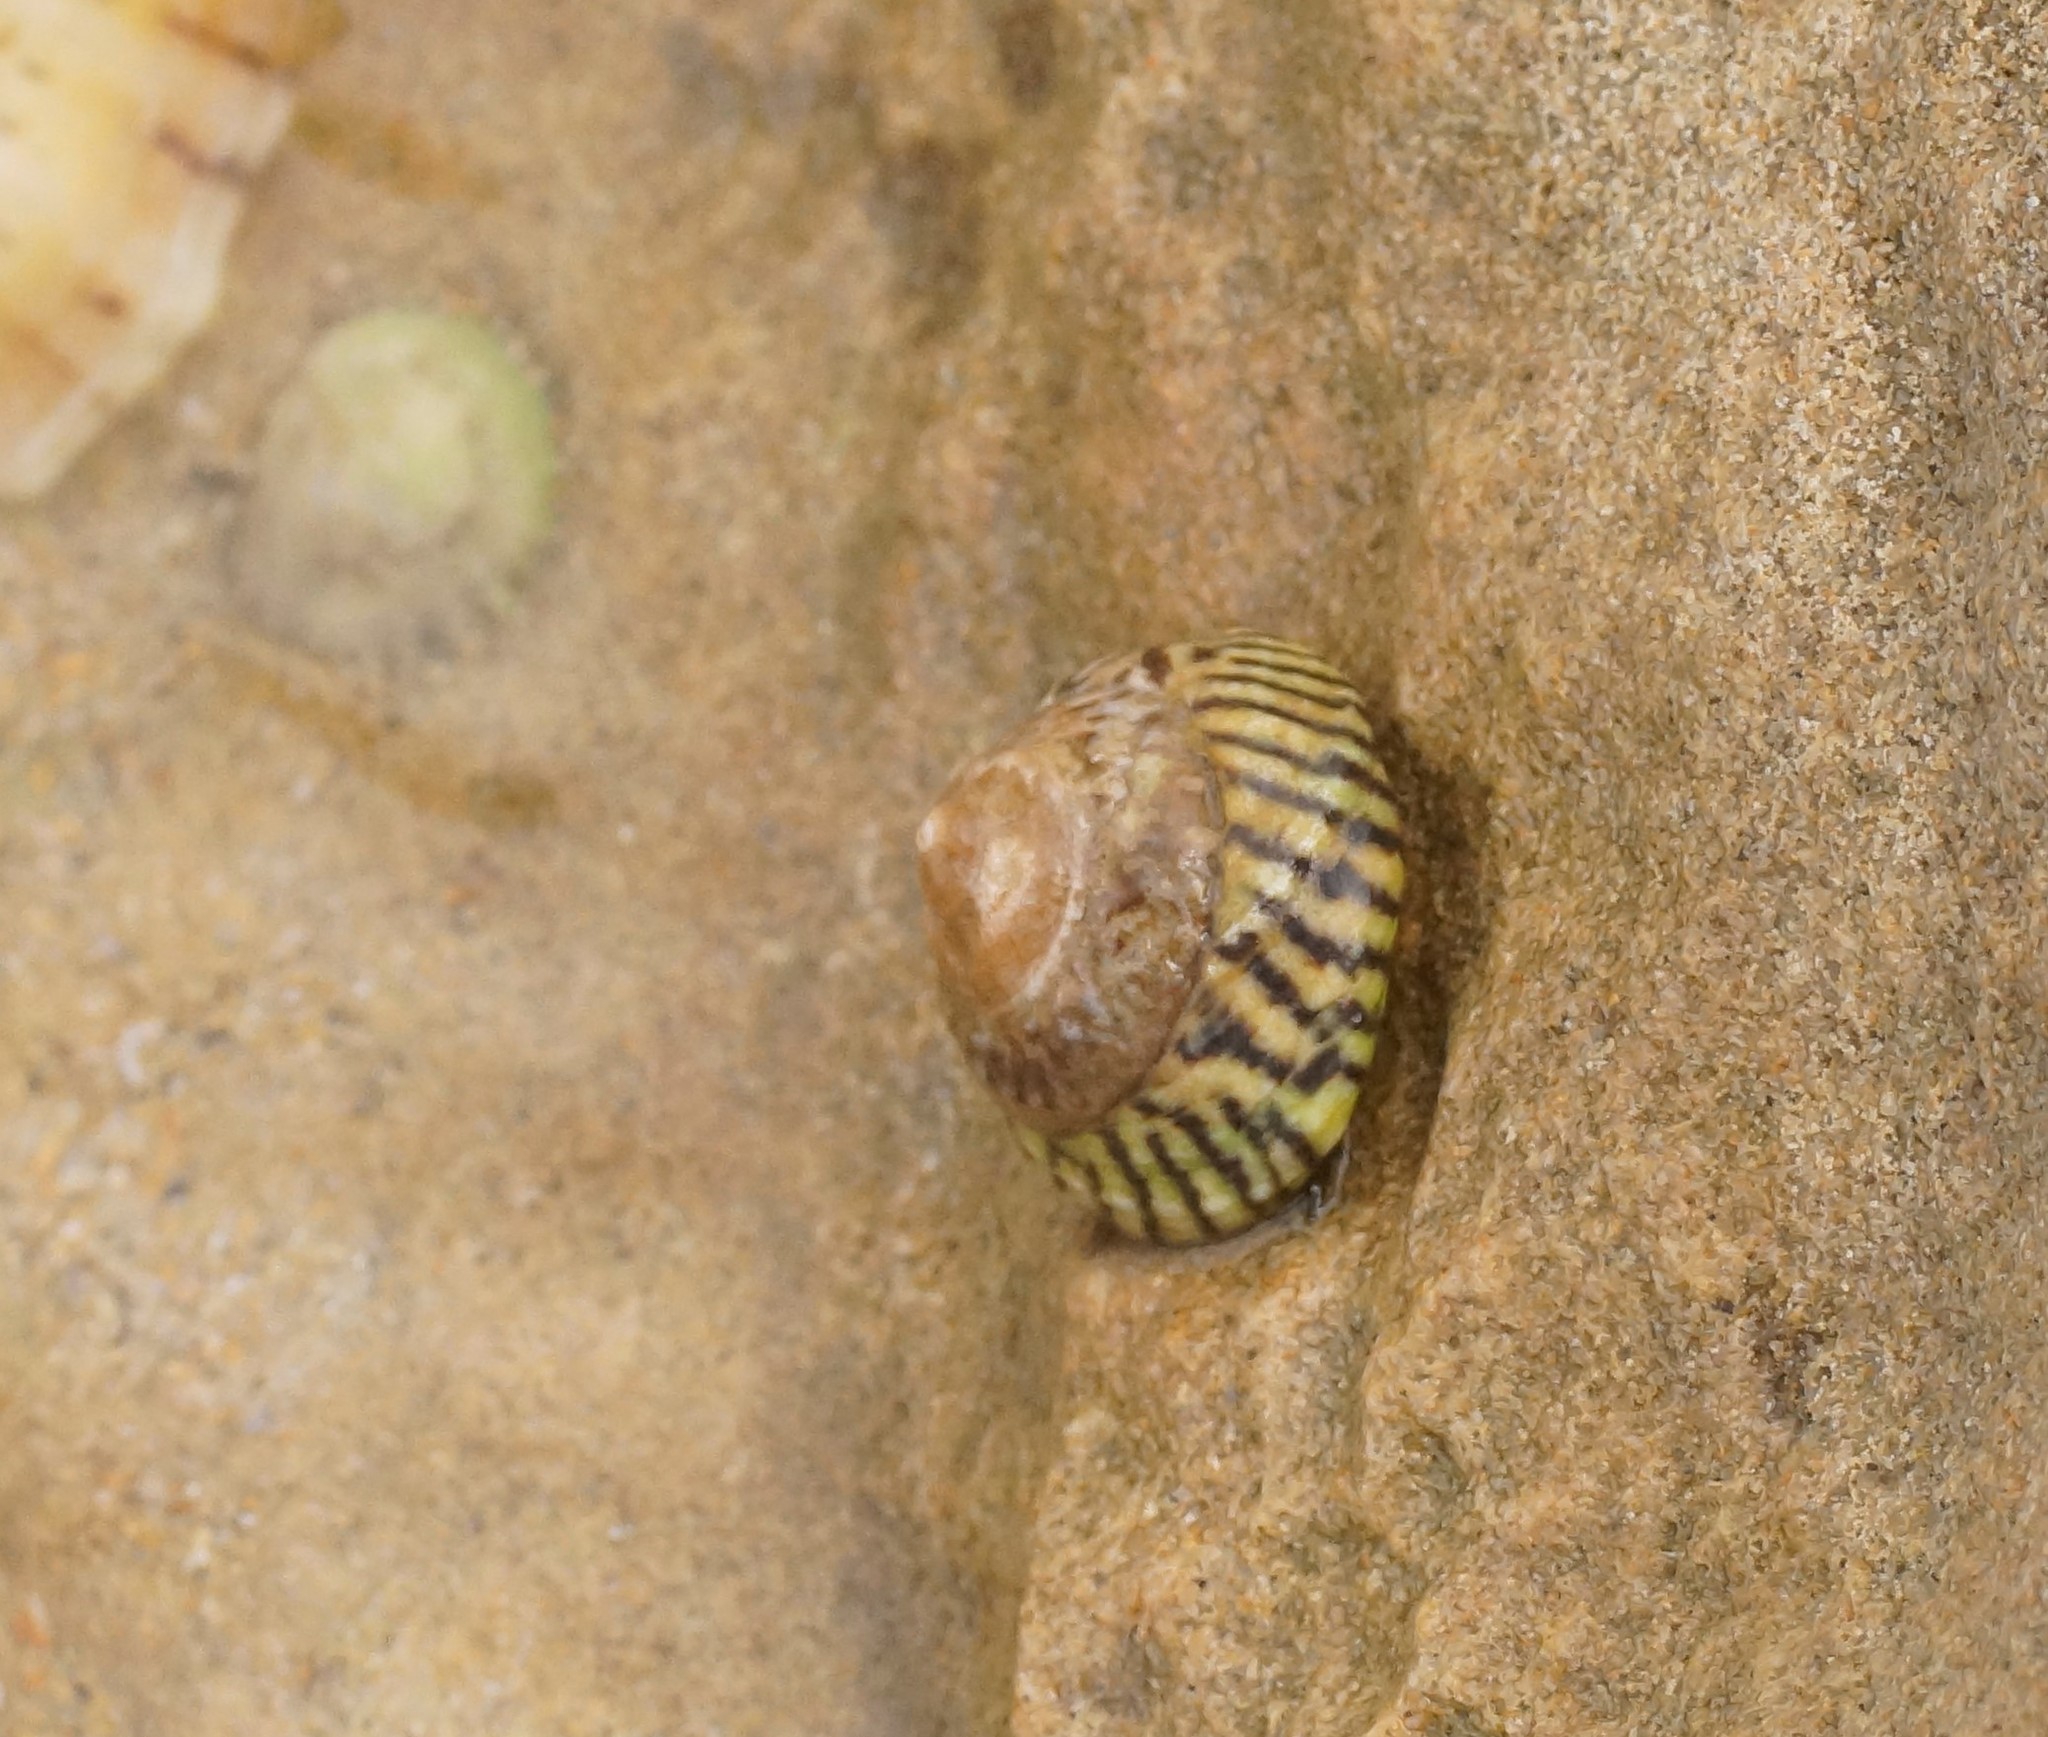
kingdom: Animalia
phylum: Mollusca
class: Gastropoda
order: Littorinimorpha
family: Littorinidae
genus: Bembicium
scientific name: Bembicium nanum
